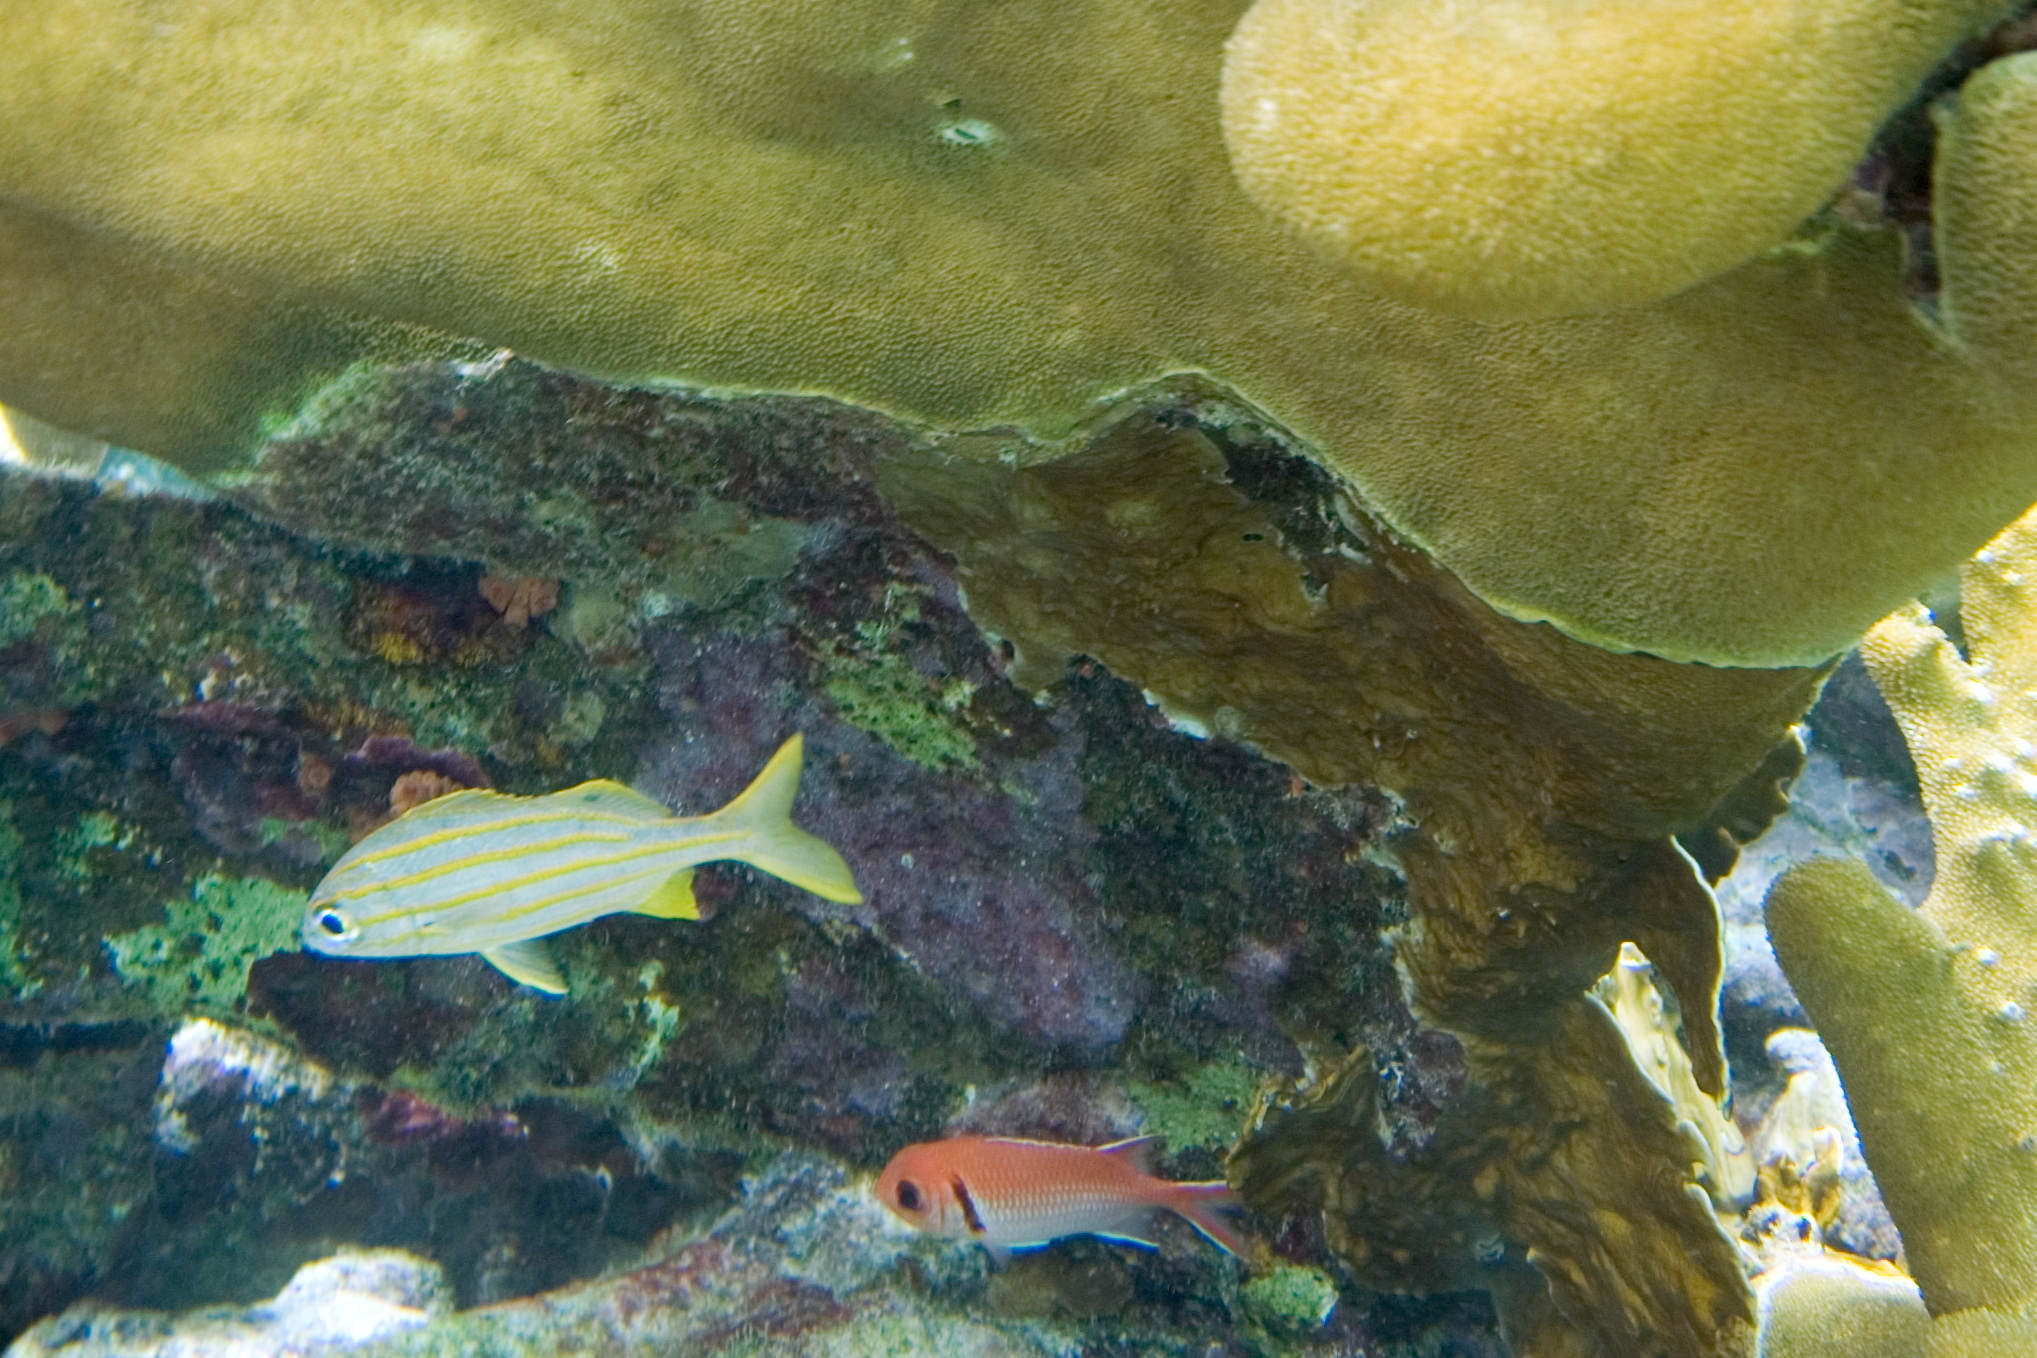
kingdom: Animalia
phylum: Chordata
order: Perciformes
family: Haemulidae
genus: Haemulon
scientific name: Haemulon chrysargyreum
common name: Smallmouth grunt
